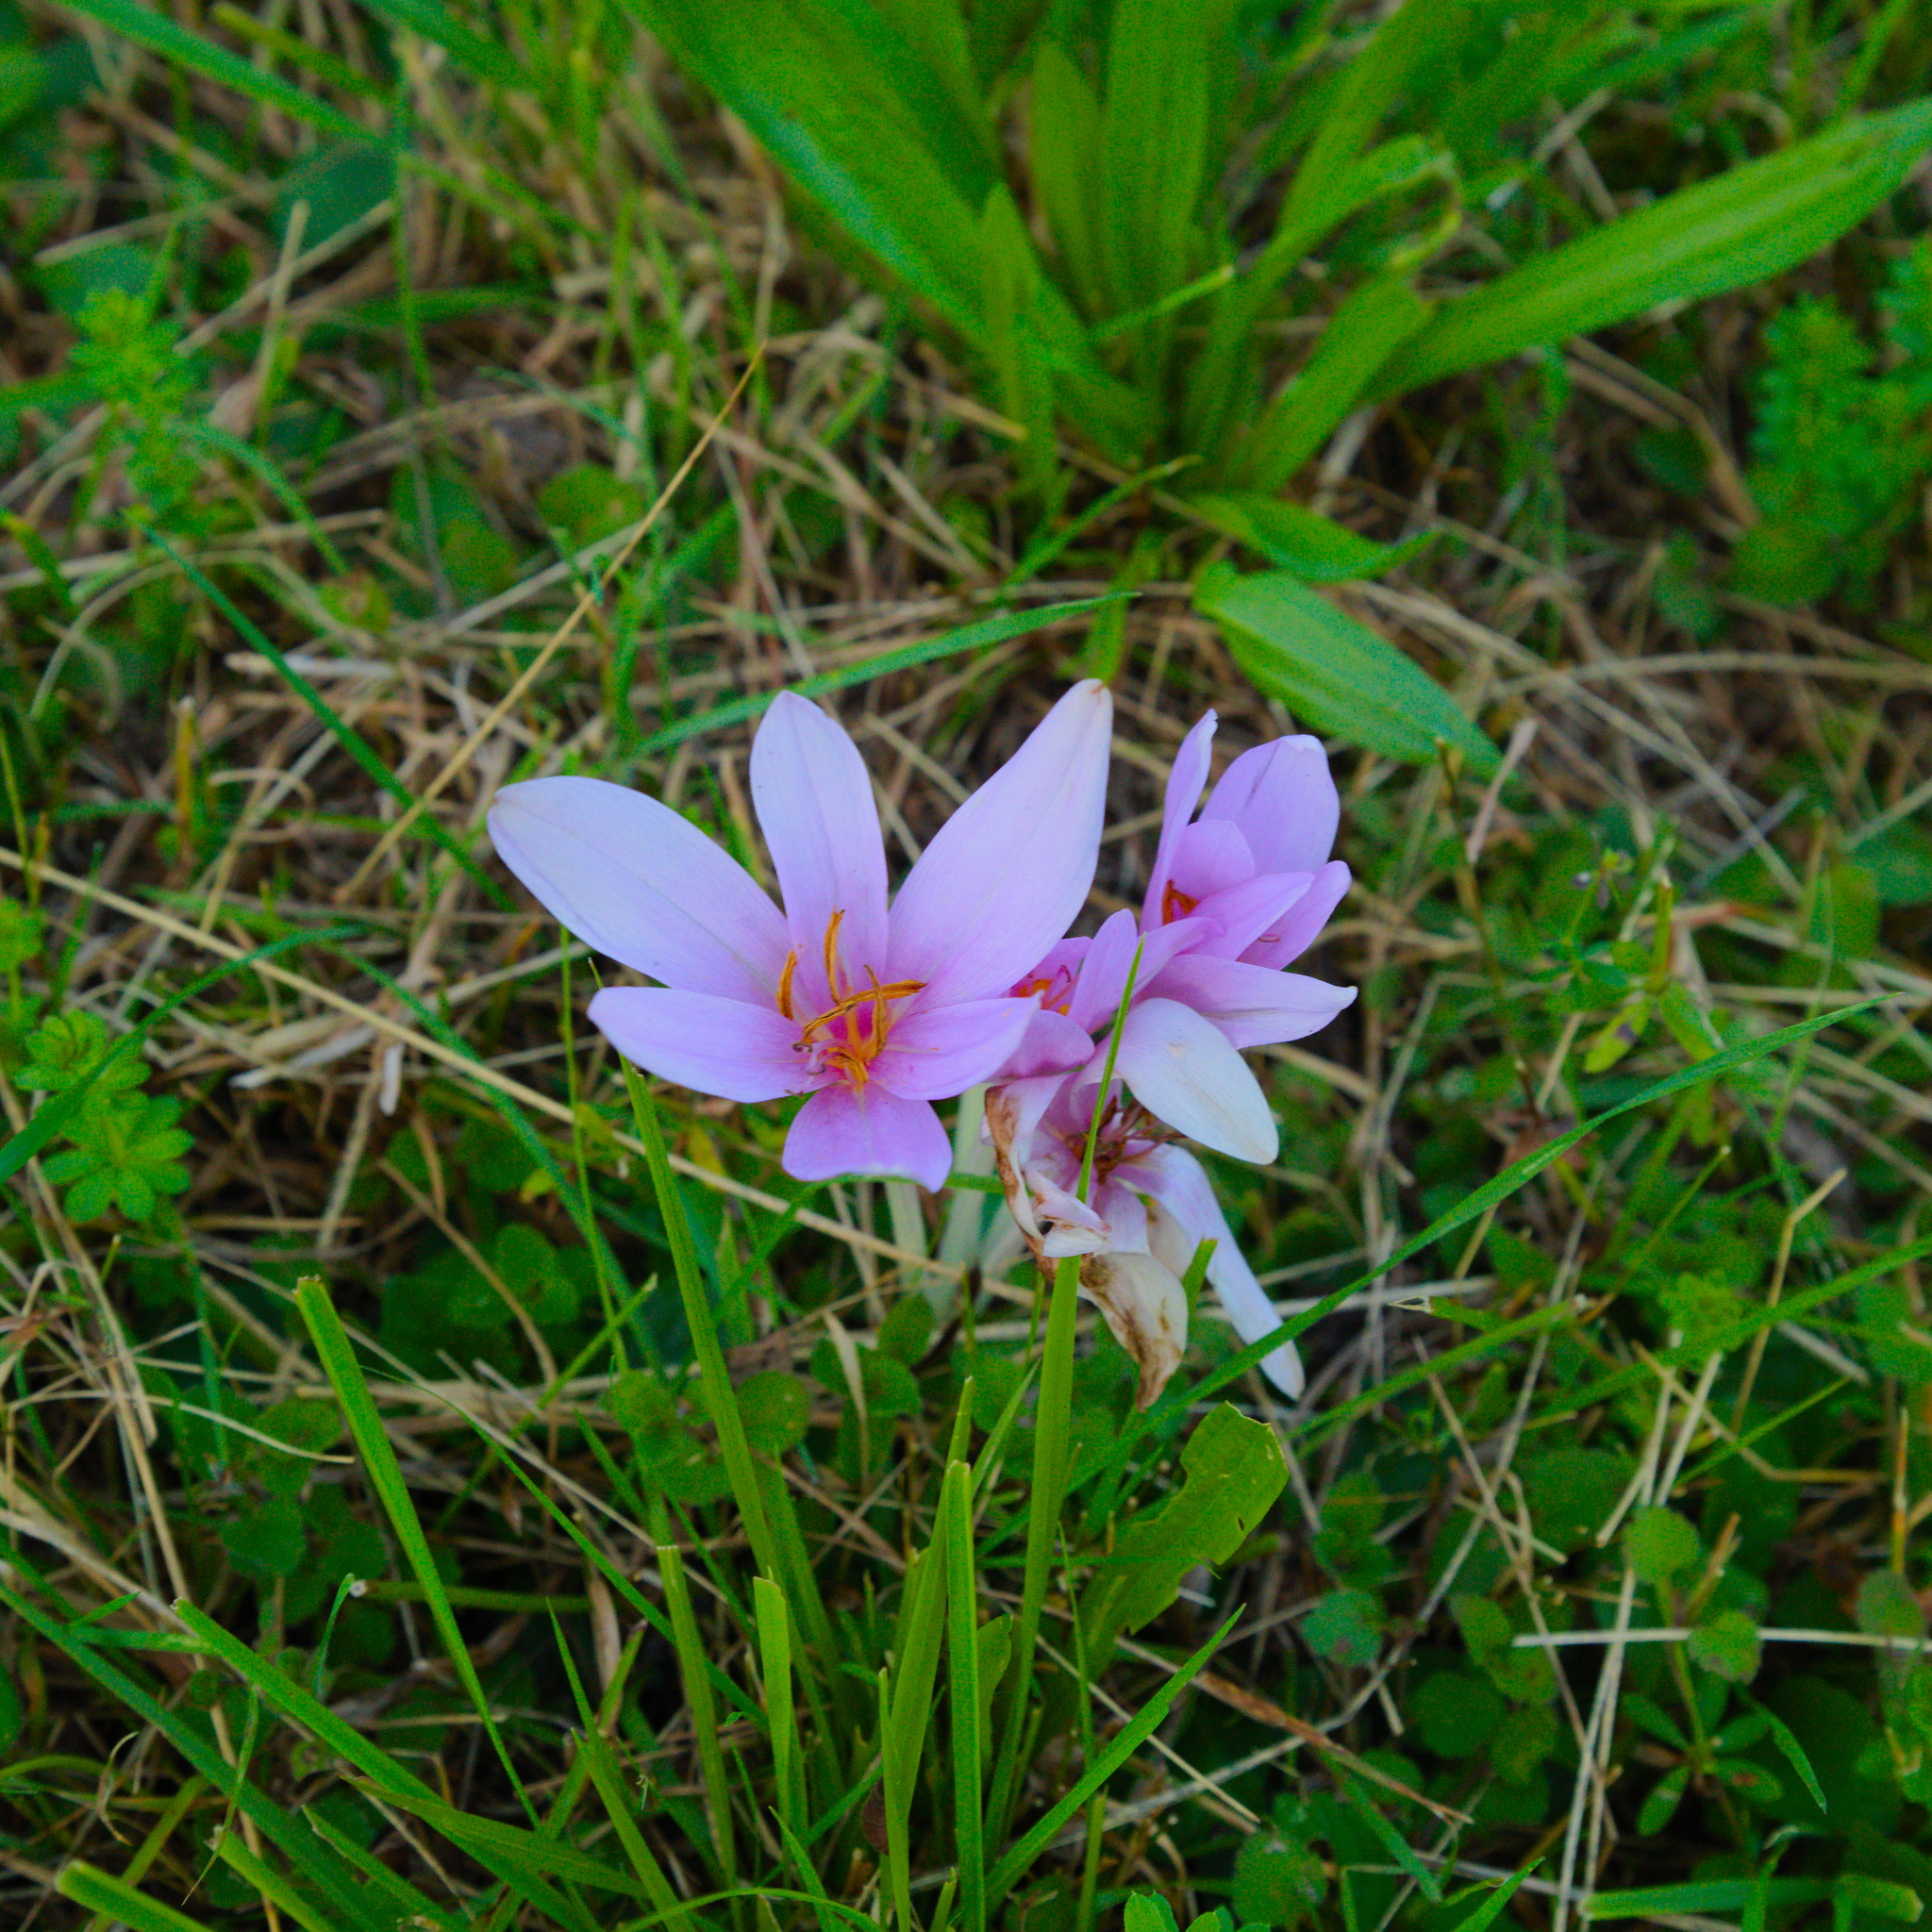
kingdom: Plantae
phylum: Tracheophyta
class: Liliopsida
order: Liliales
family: Colchicaceae
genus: Colchicum
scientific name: Colchicum autumnale
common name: Autumn crocus
